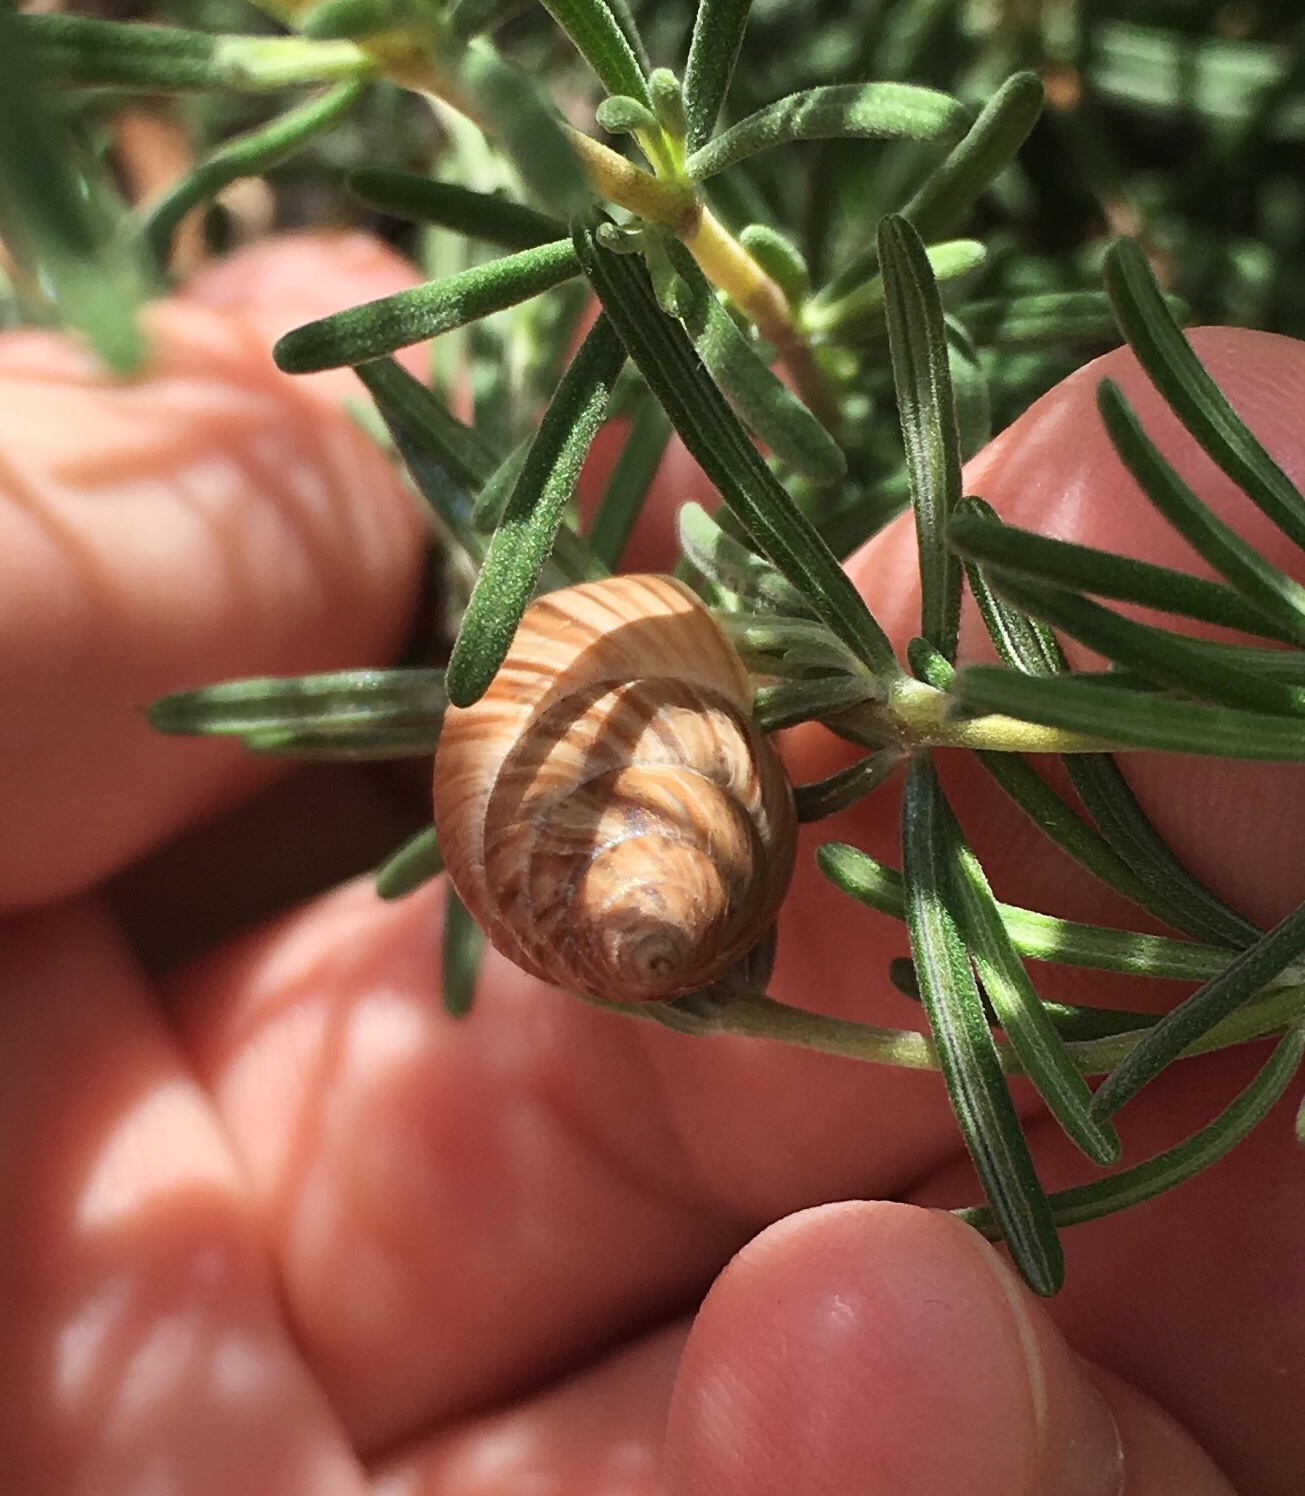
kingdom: Animalia
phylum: Mollusca
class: Gastropoda
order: Stylommatophora
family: Bulimulidae
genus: Bulimulus
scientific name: Bulimulus bonariensis
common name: Snail
